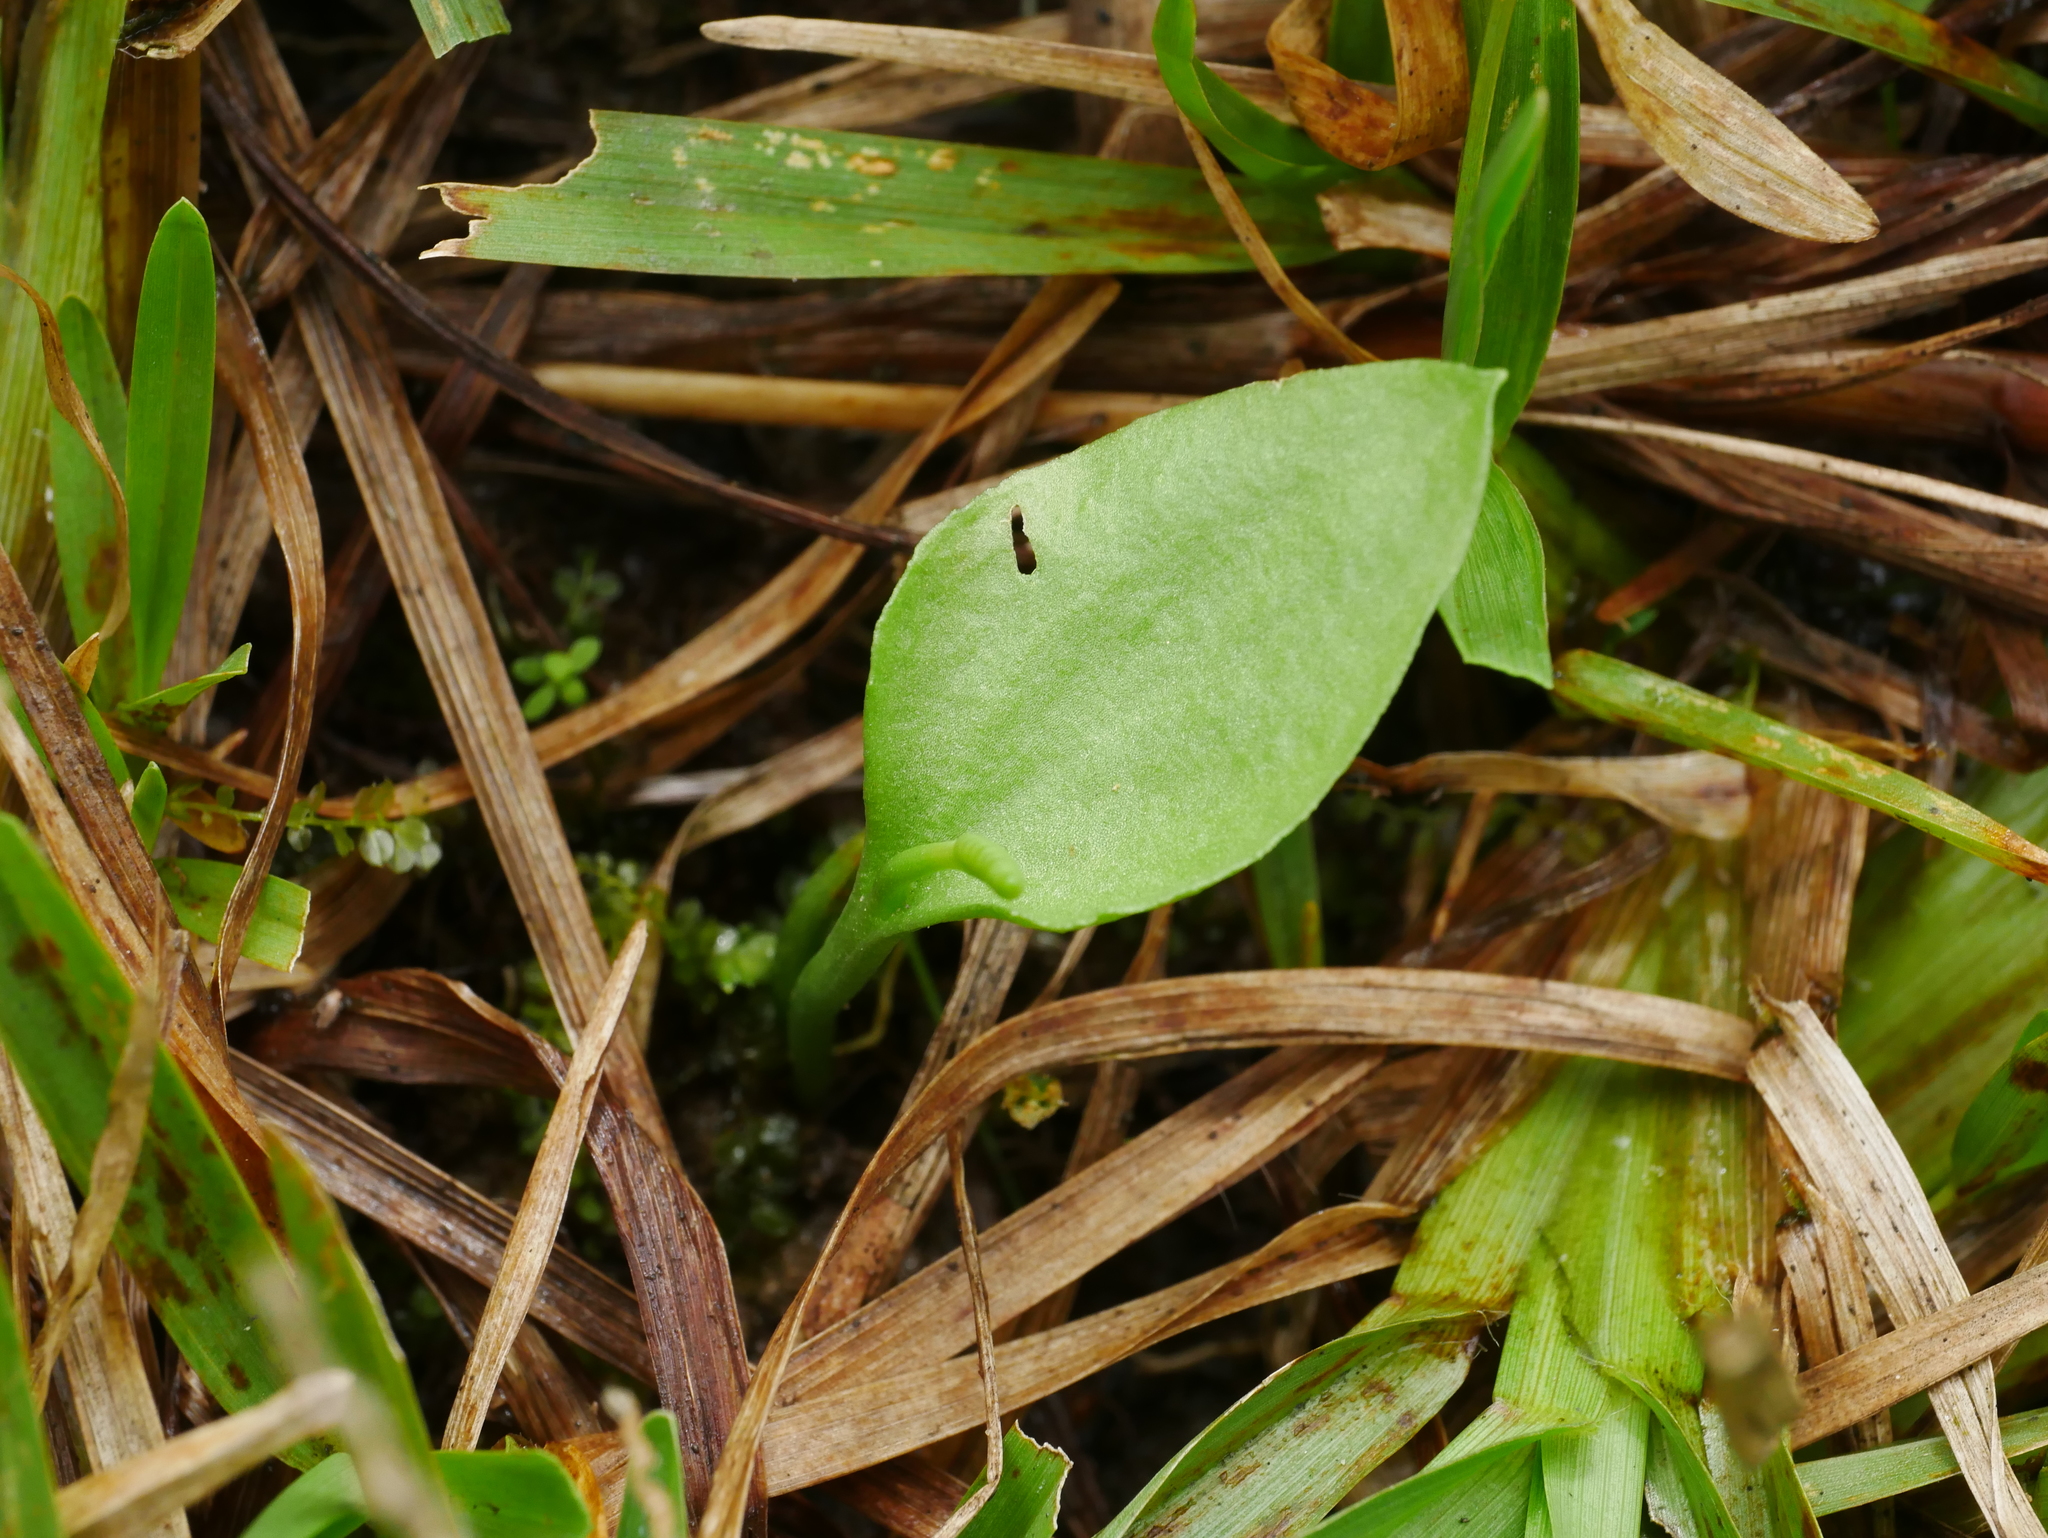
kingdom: Plantae
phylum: Tracheophyta
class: Polypodiopsida
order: Ophioglossales
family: Ophioglossaceae
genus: Ophioglossum
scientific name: Ophioglossum petiolatum
